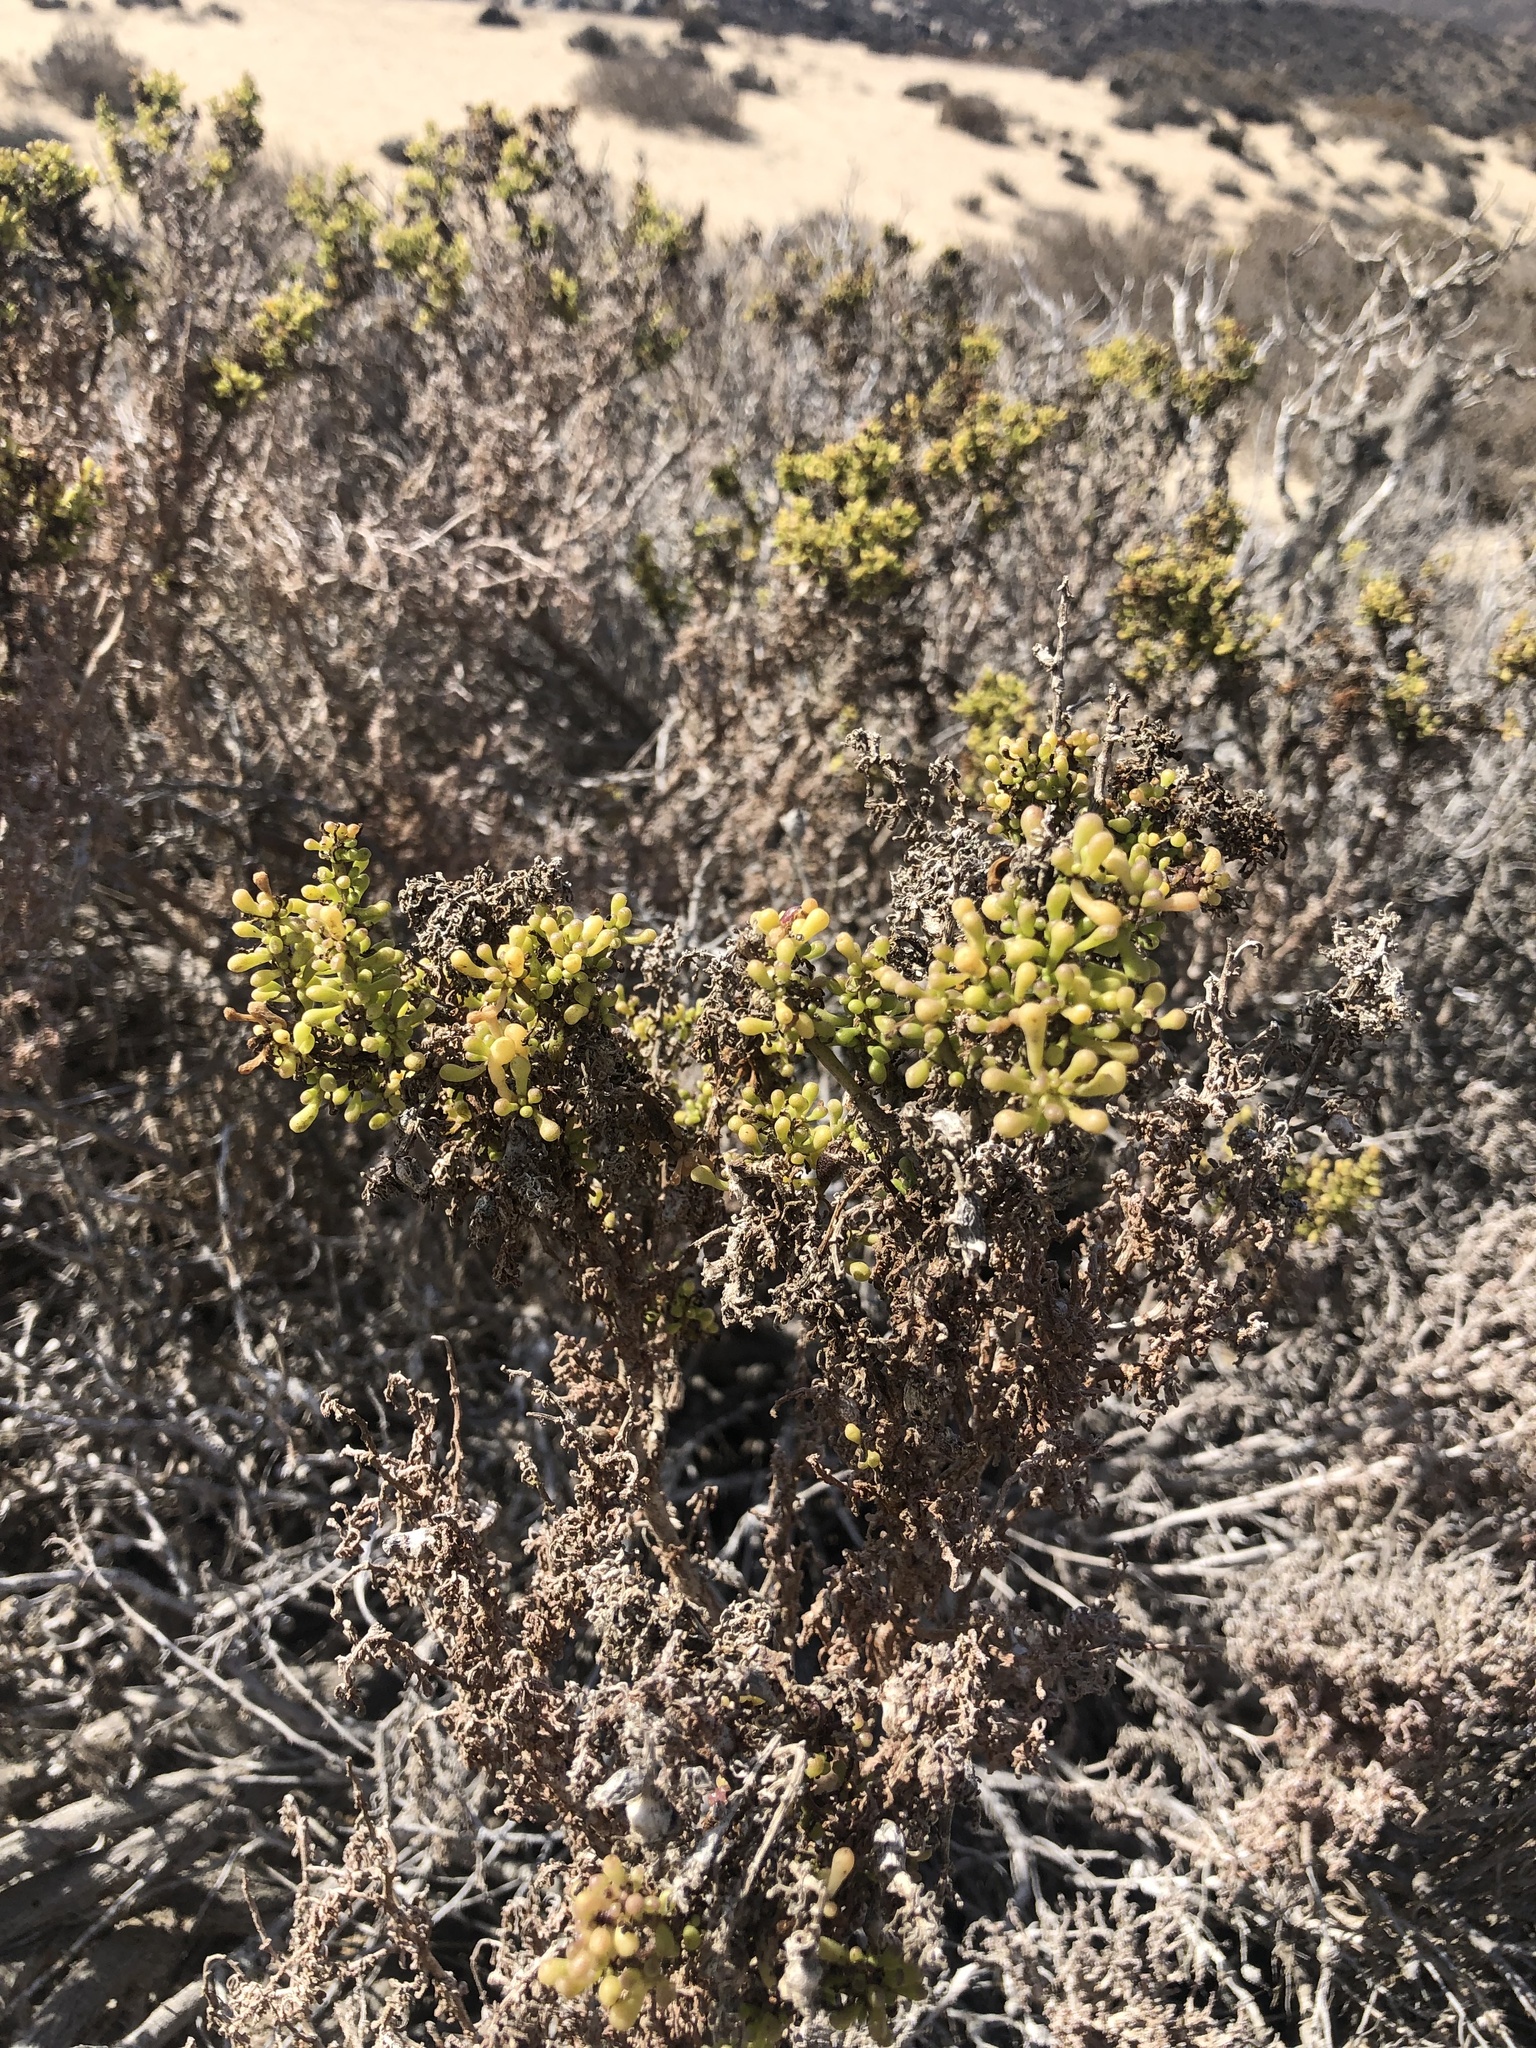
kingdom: Plantae
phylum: Tracheophyta
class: Magnoliopsida
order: Solanales
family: Solanaceae
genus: Nolana
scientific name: Nolana divaricata
